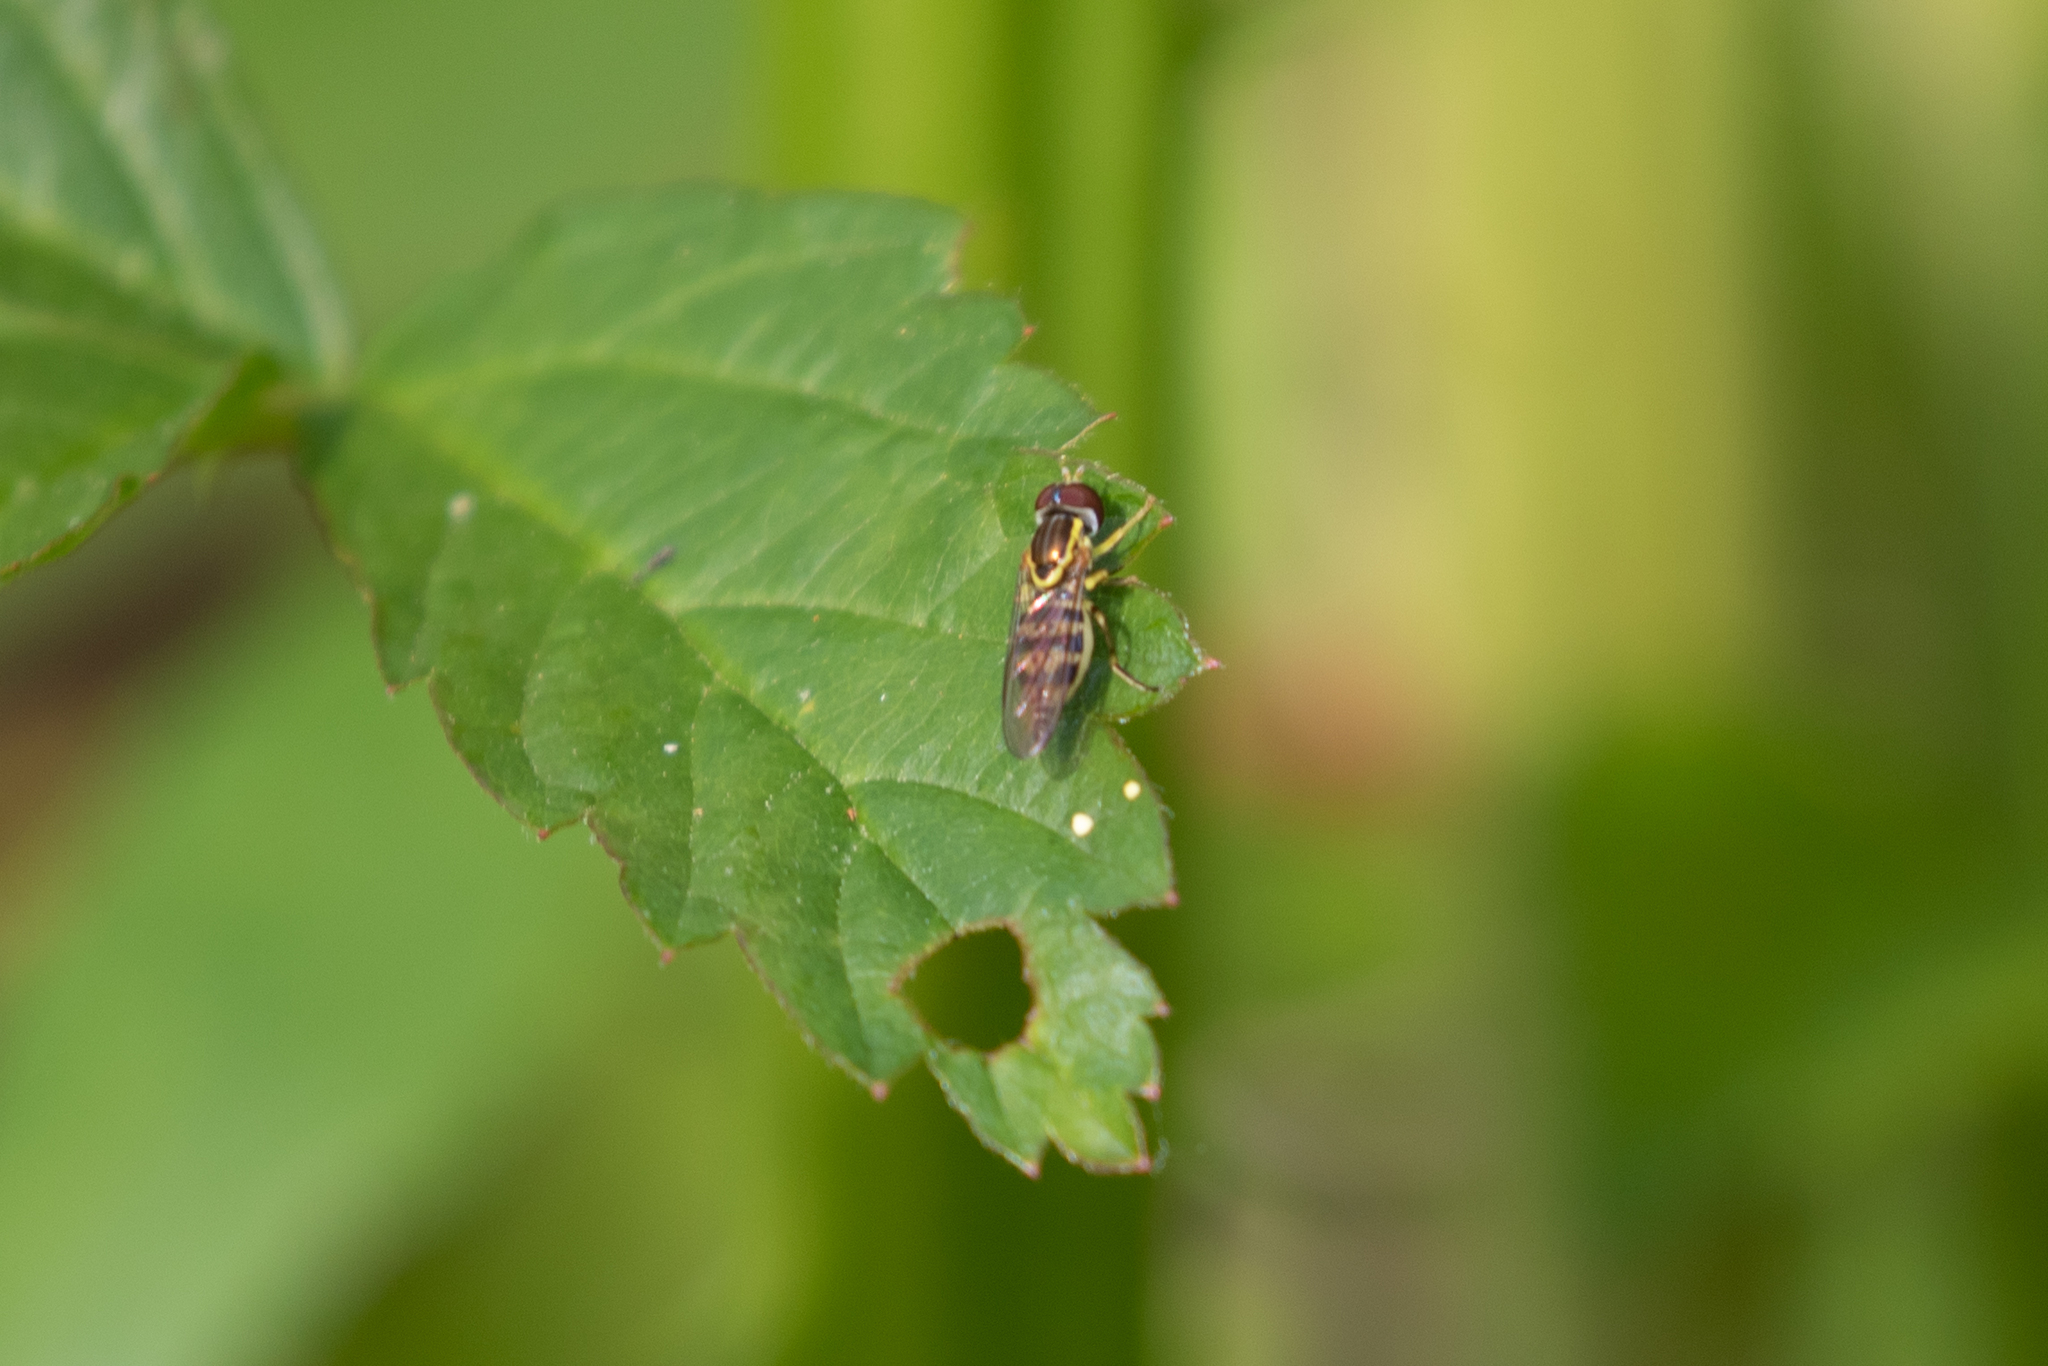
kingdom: Animalia
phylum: Arthropoda
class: Insecta
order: Diptera
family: Syrphidae
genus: Toxomerus
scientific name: Toxomerus geminatus
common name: Eastern calligrapher
